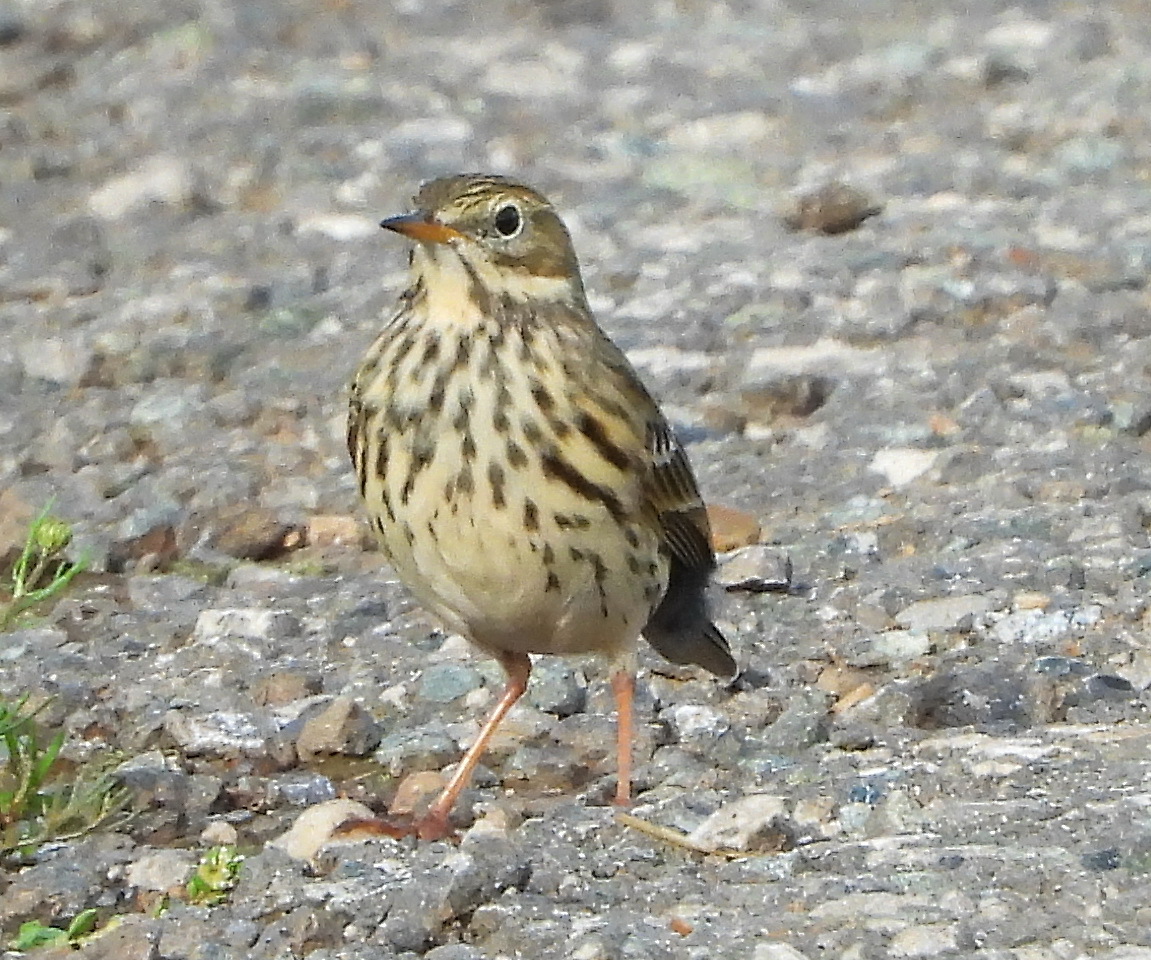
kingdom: Animalia
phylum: Chordata
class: Aves
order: Passeriformes
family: Motacillidae
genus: Anthus
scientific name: Anthus pratensis
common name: Meadow pipit
